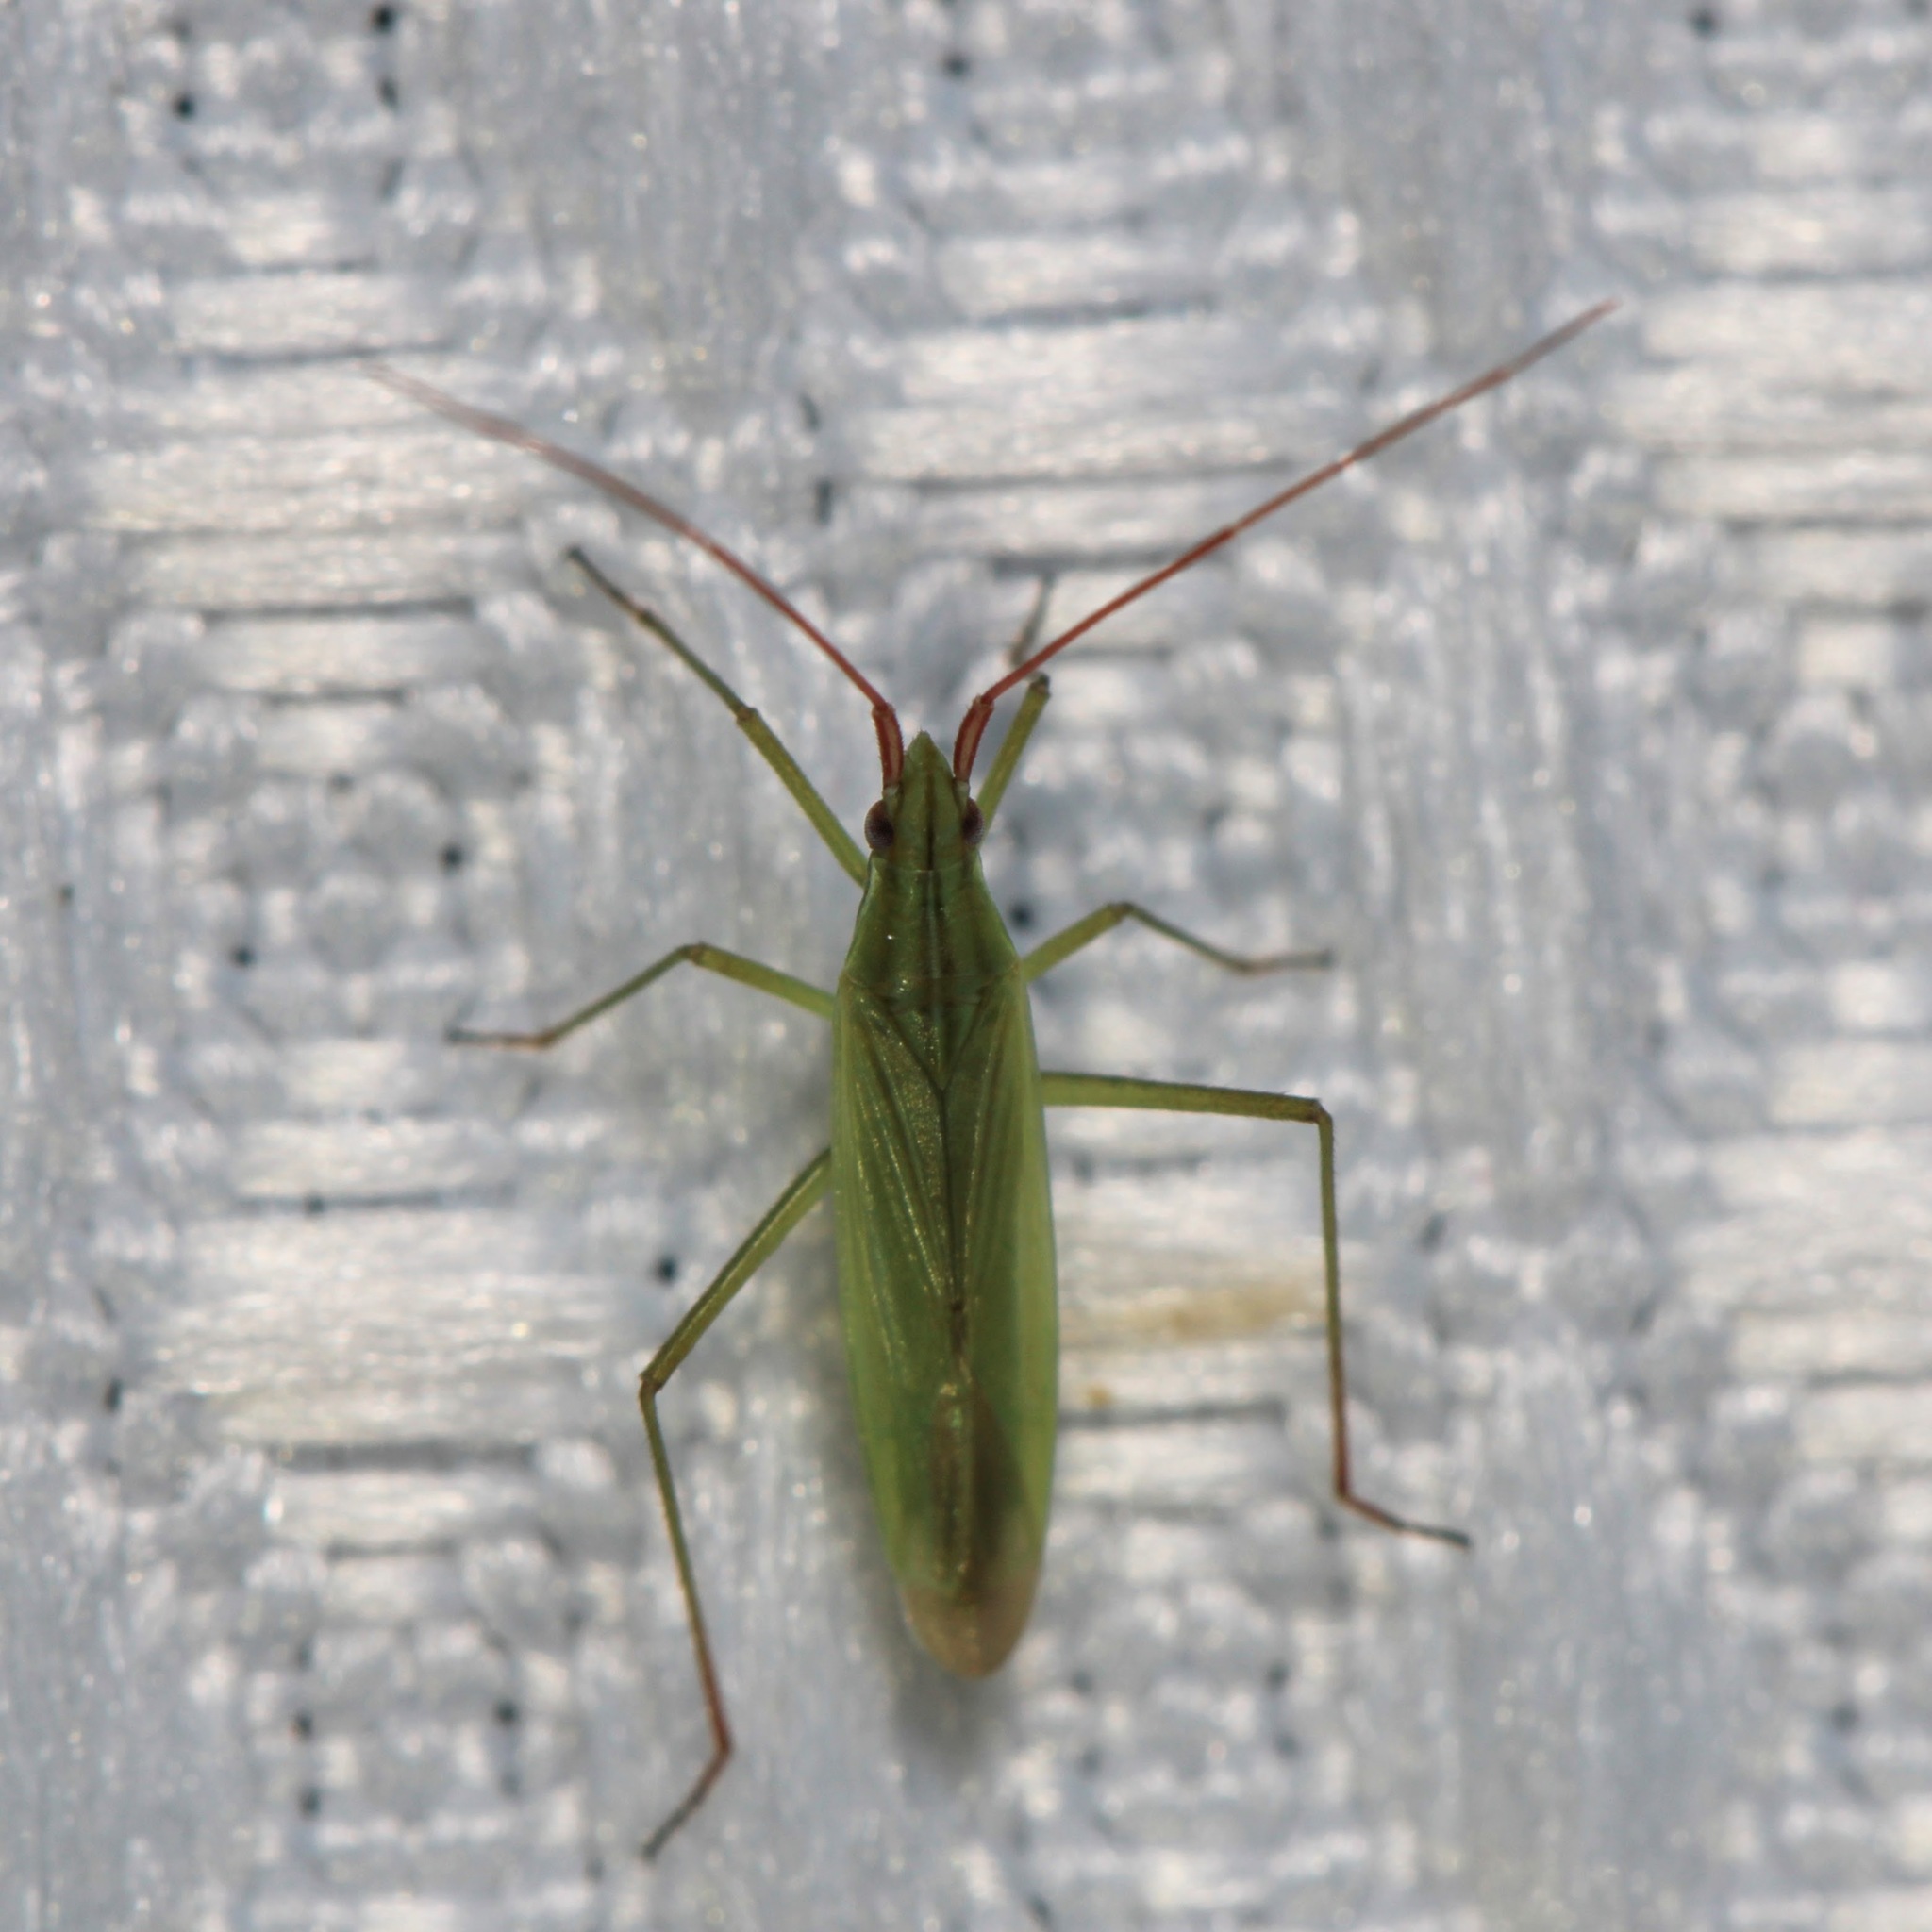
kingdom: Animalia
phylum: Arthropoda
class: Insecta
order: Hemiptera
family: Miridae
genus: Trigonotylus
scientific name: Trigonotylus caelestialium
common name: Rice leaf bug
